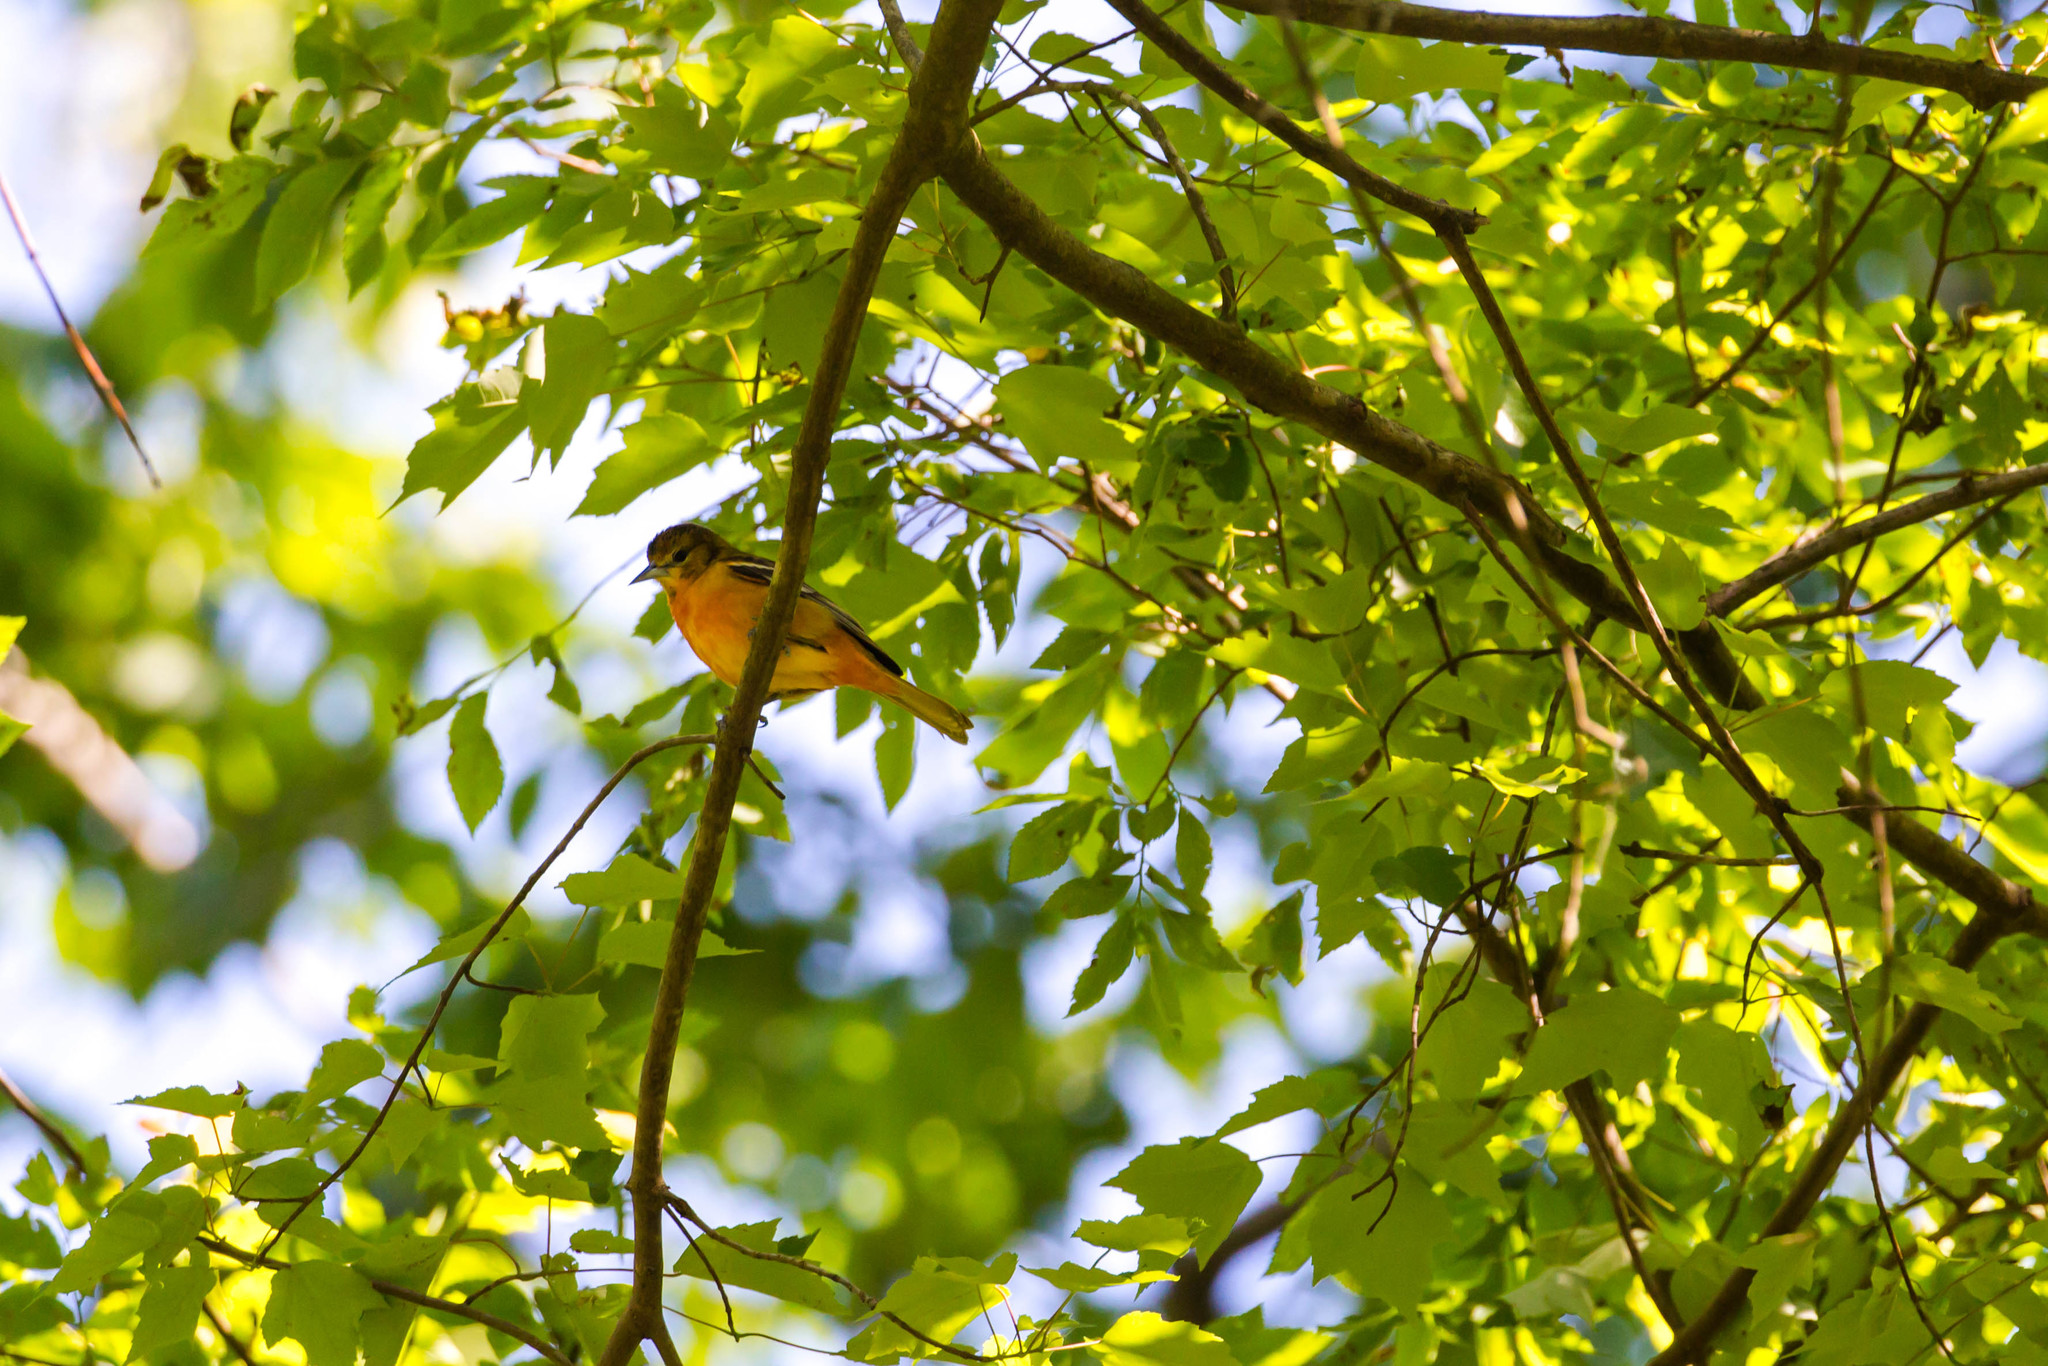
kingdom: Animalia
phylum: Chordata
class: Aves
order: Passeriformes
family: Icteridae
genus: Icterus
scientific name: Icterus galbula
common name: Baltimore oriole
